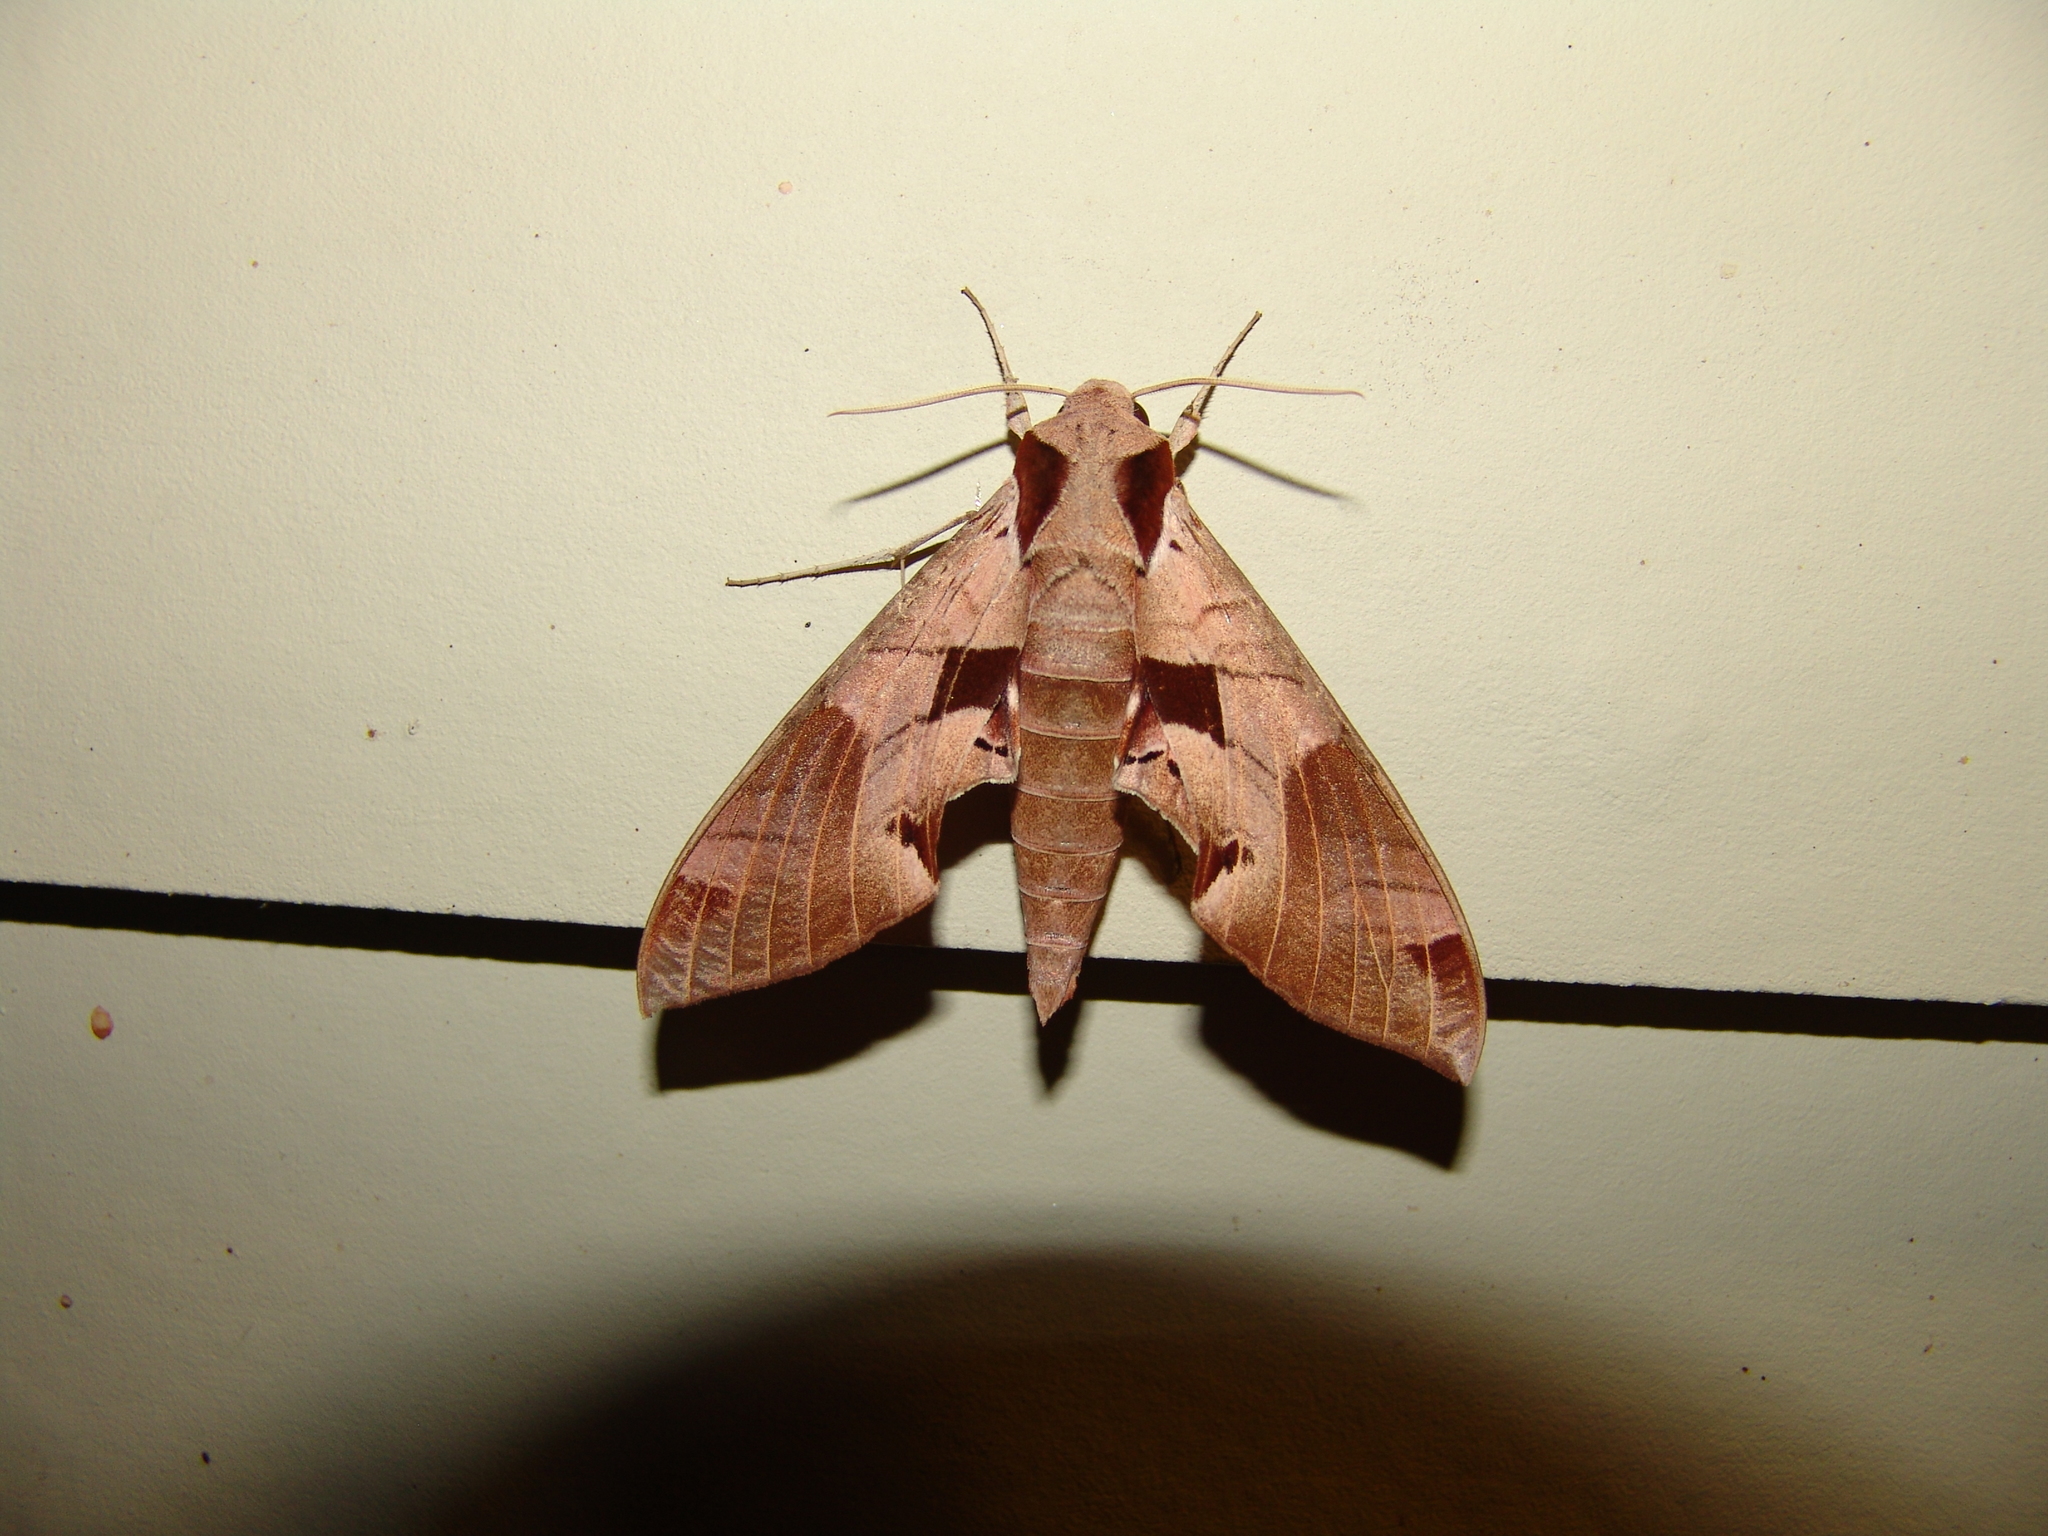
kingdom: Animalia
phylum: Arthropoda
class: Insecta
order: Lepidoptera
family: Sphingidae
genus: Eumorpha
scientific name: Eumorpha achemon
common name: Achemon sphinx
